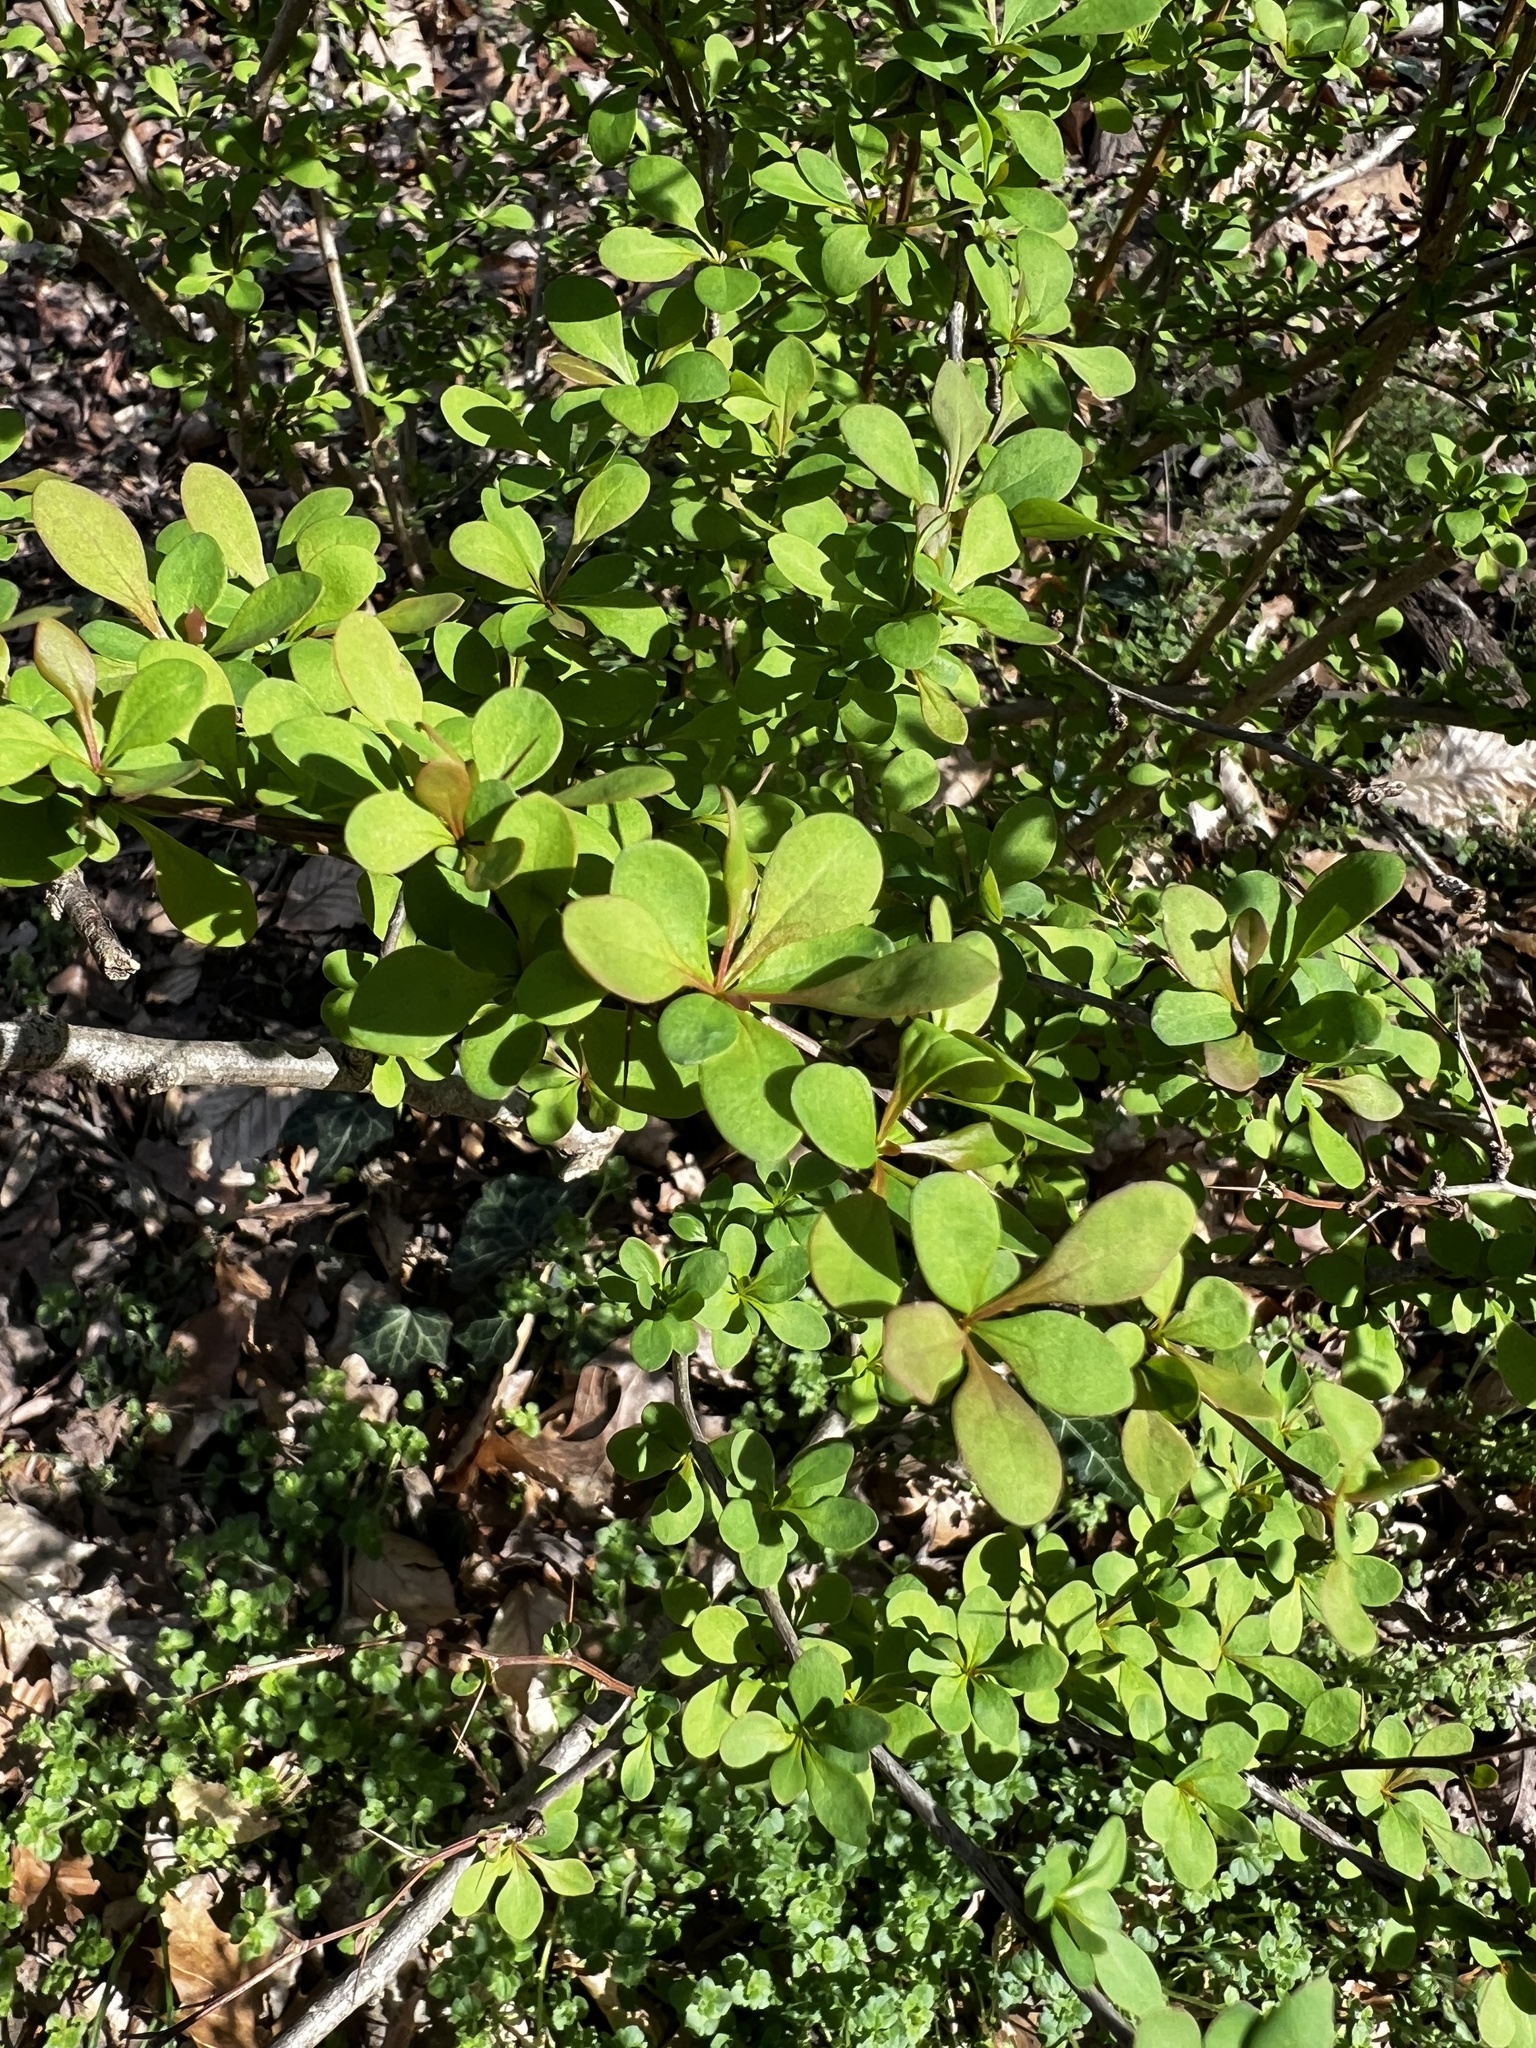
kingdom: Plantae
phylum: Tracheophyta
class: Magnoliopsida
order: Ranunculales
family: Berberidaceae
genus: Berberis
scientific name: Berberis thunbergii
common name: Japanese barberry
